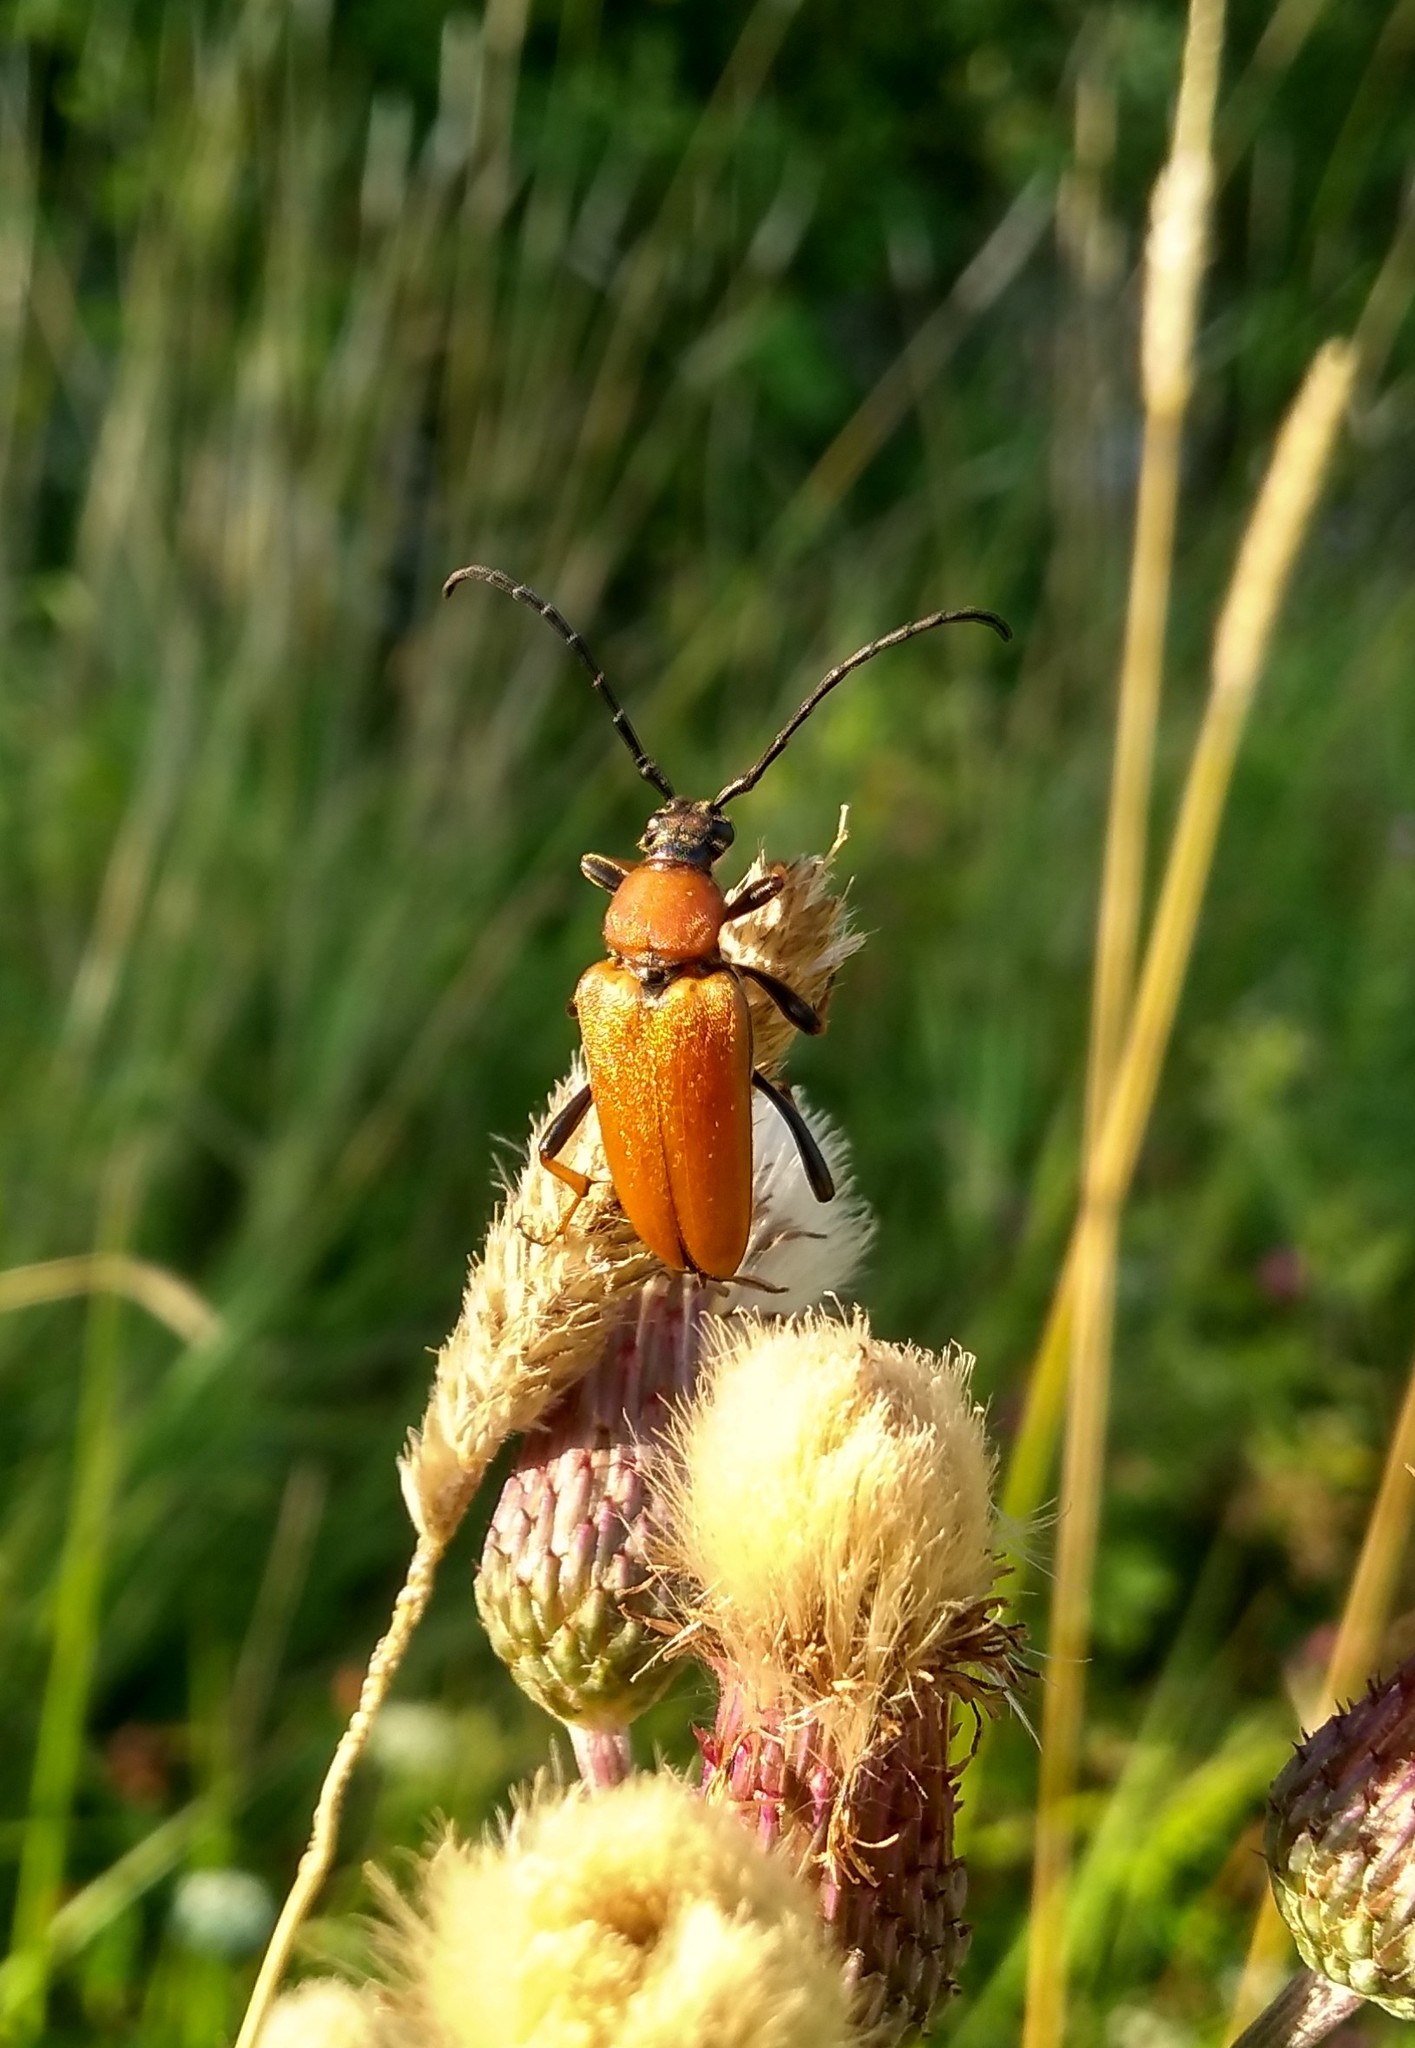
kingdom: Animalia
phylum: Arthropoda
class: Insecta
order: Coleoptera
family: Cerambycidae
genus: Stictoleptura
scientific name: Stictoleptura rubra
